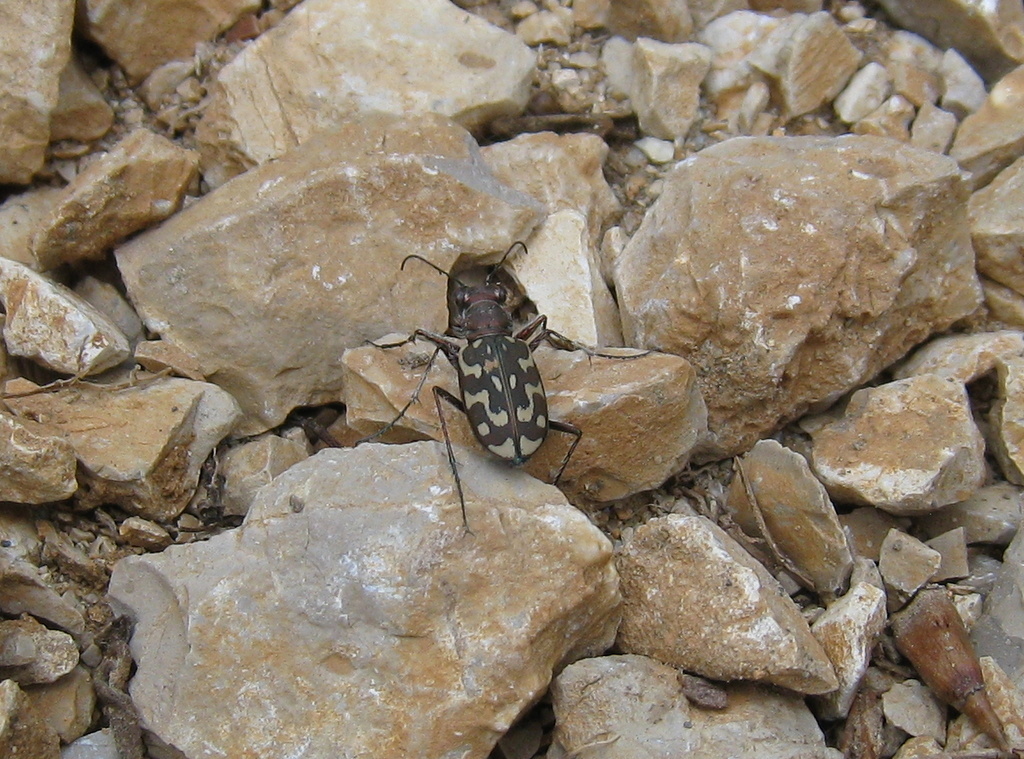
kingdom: Animalia
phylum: Arthropoda
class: Insecta
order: Coleoptera
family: Carabidae
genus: Lophyra
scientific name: Lophyra flexuosa
